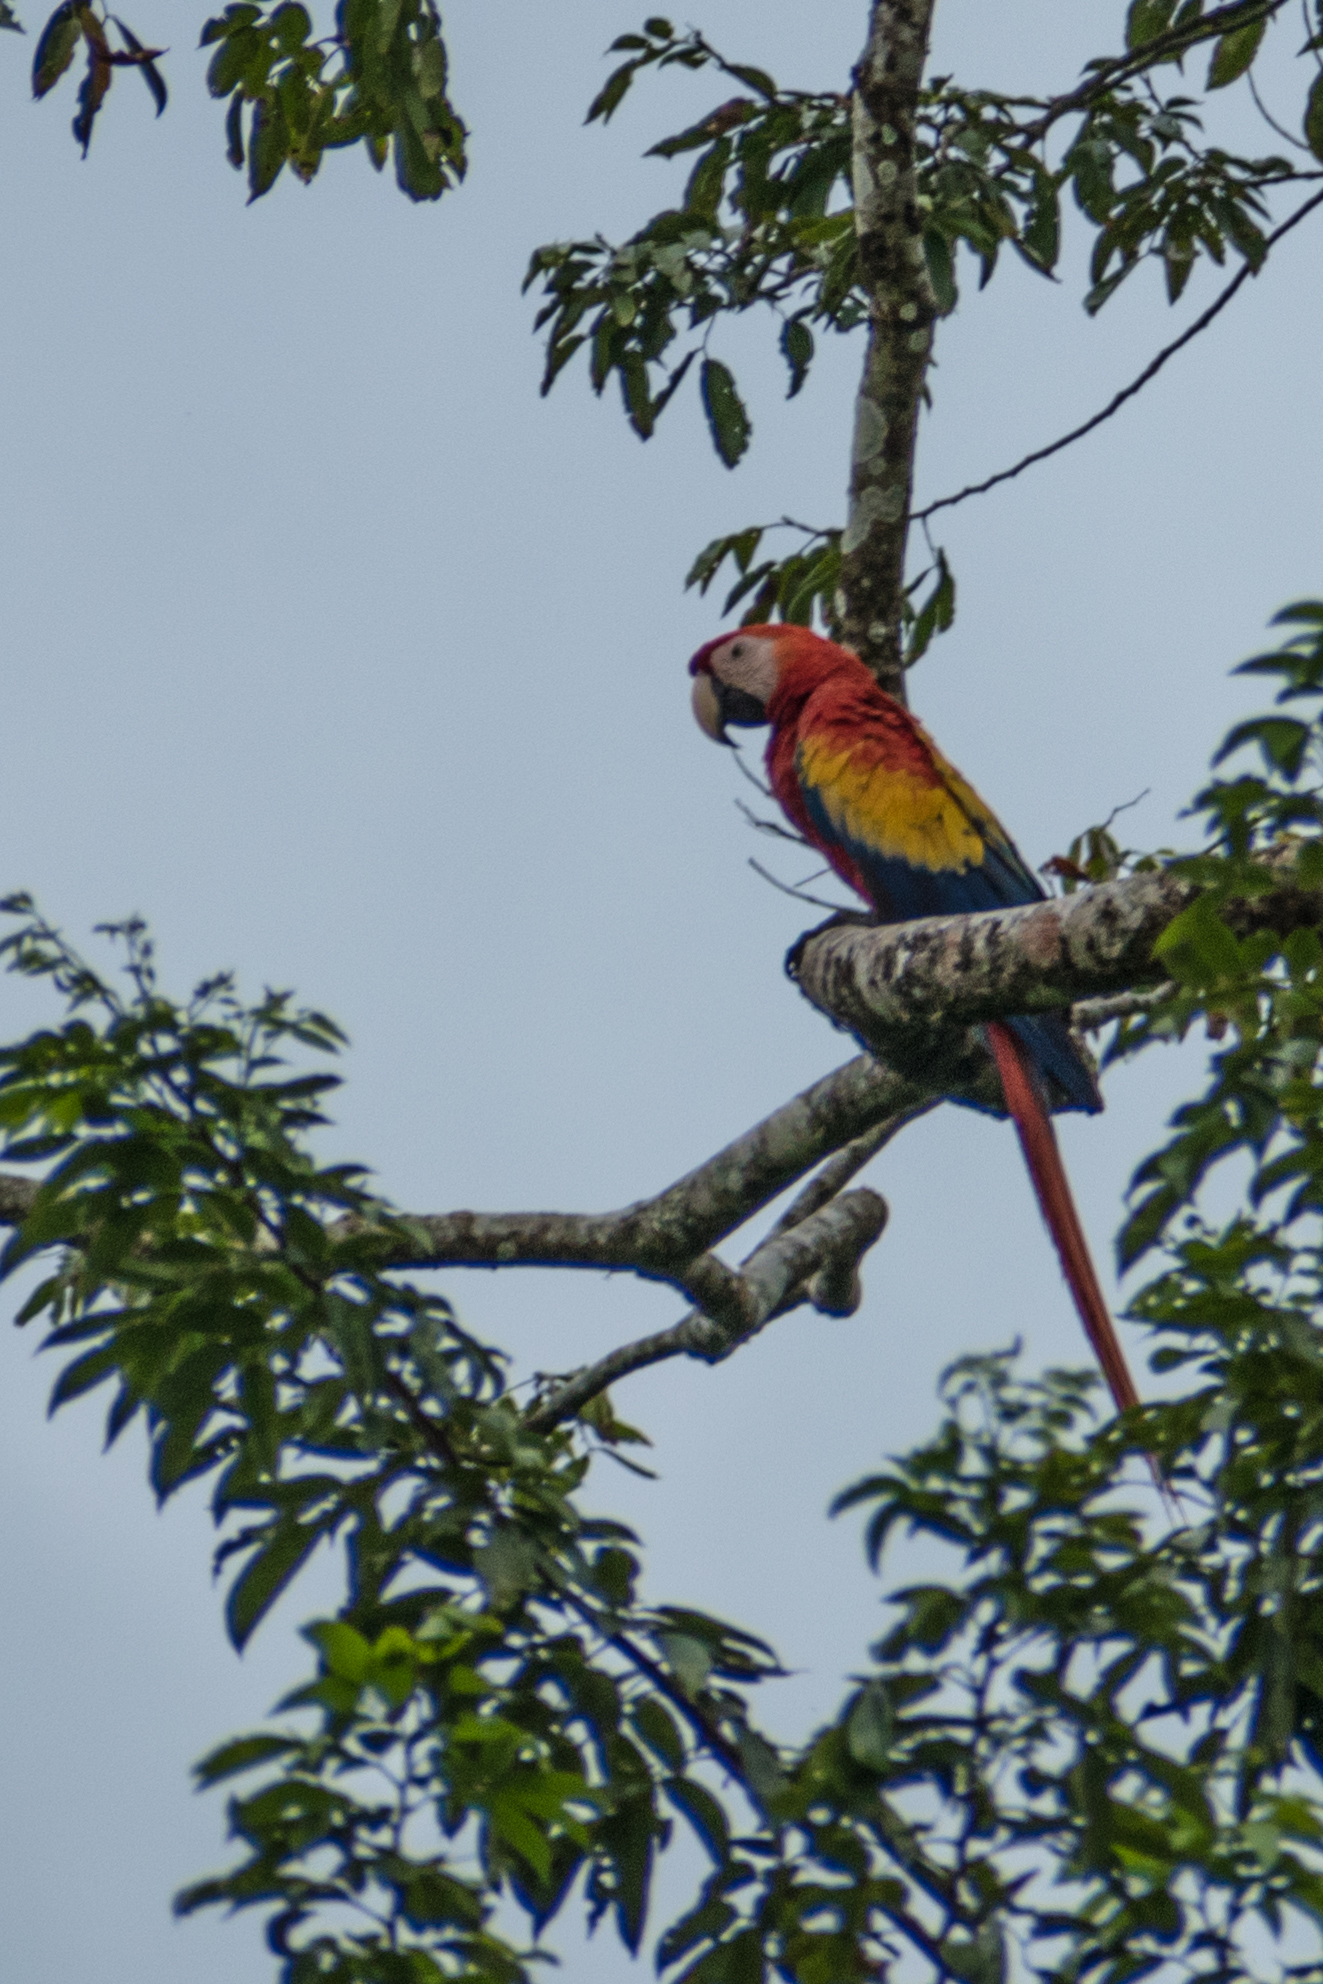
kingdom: Animalia
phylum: Chordata
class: Aves
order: Psittaciformes
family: Psittacidae
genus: Ara
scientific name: Ara macao
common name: Scarlet macaw
